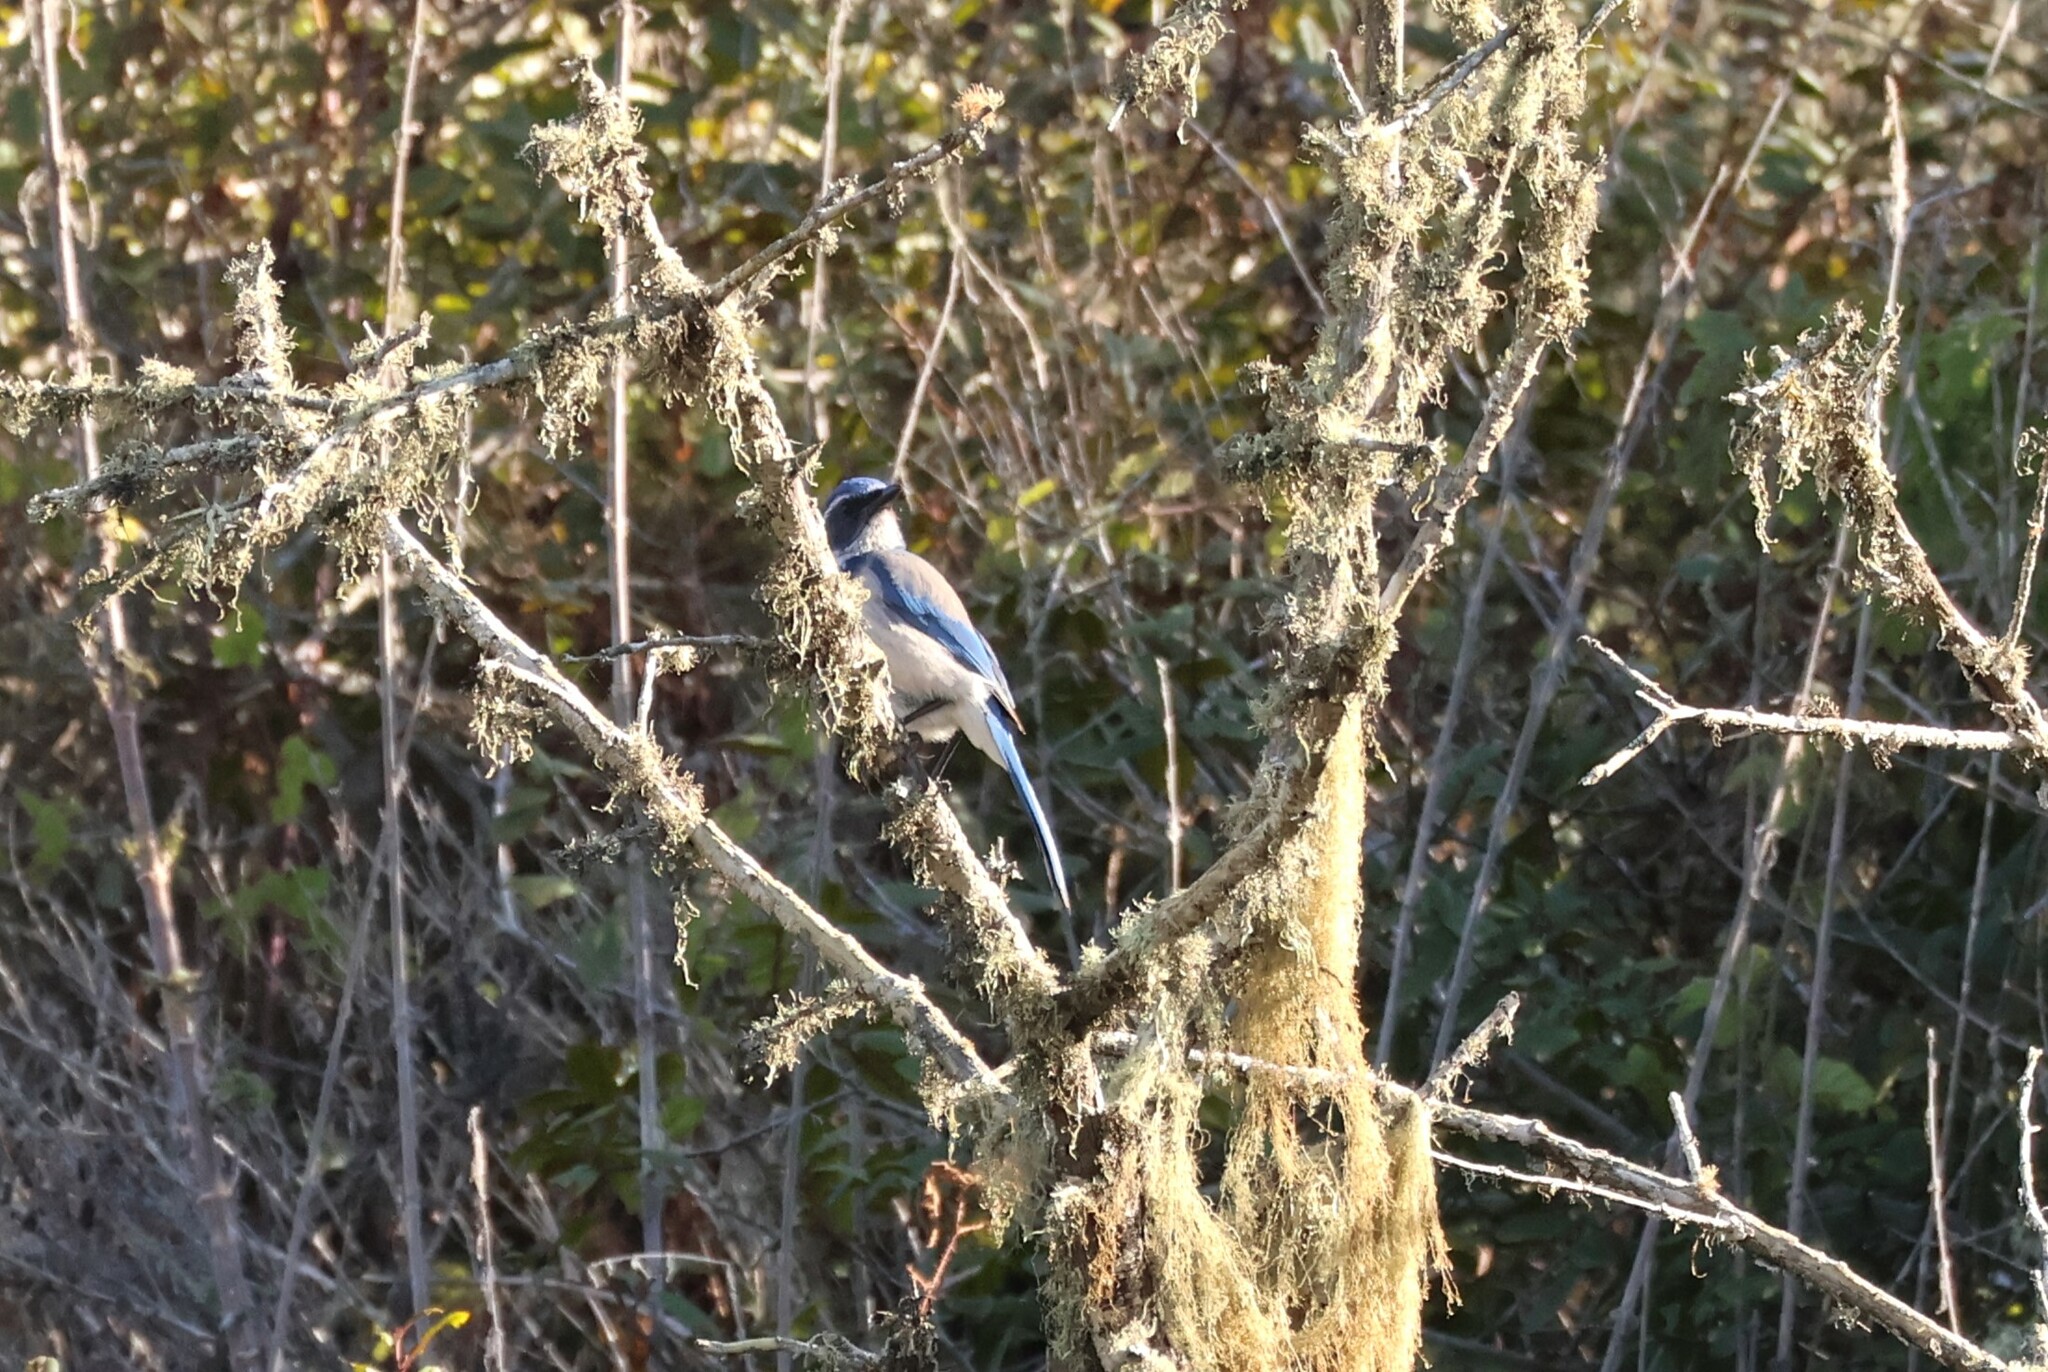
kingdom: Animalia
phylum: Chordata
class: Aves
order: Passeriformes
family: Corvidae
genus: Aphelocoma
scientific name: Aphelocoma californica
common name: California scrub-jay
